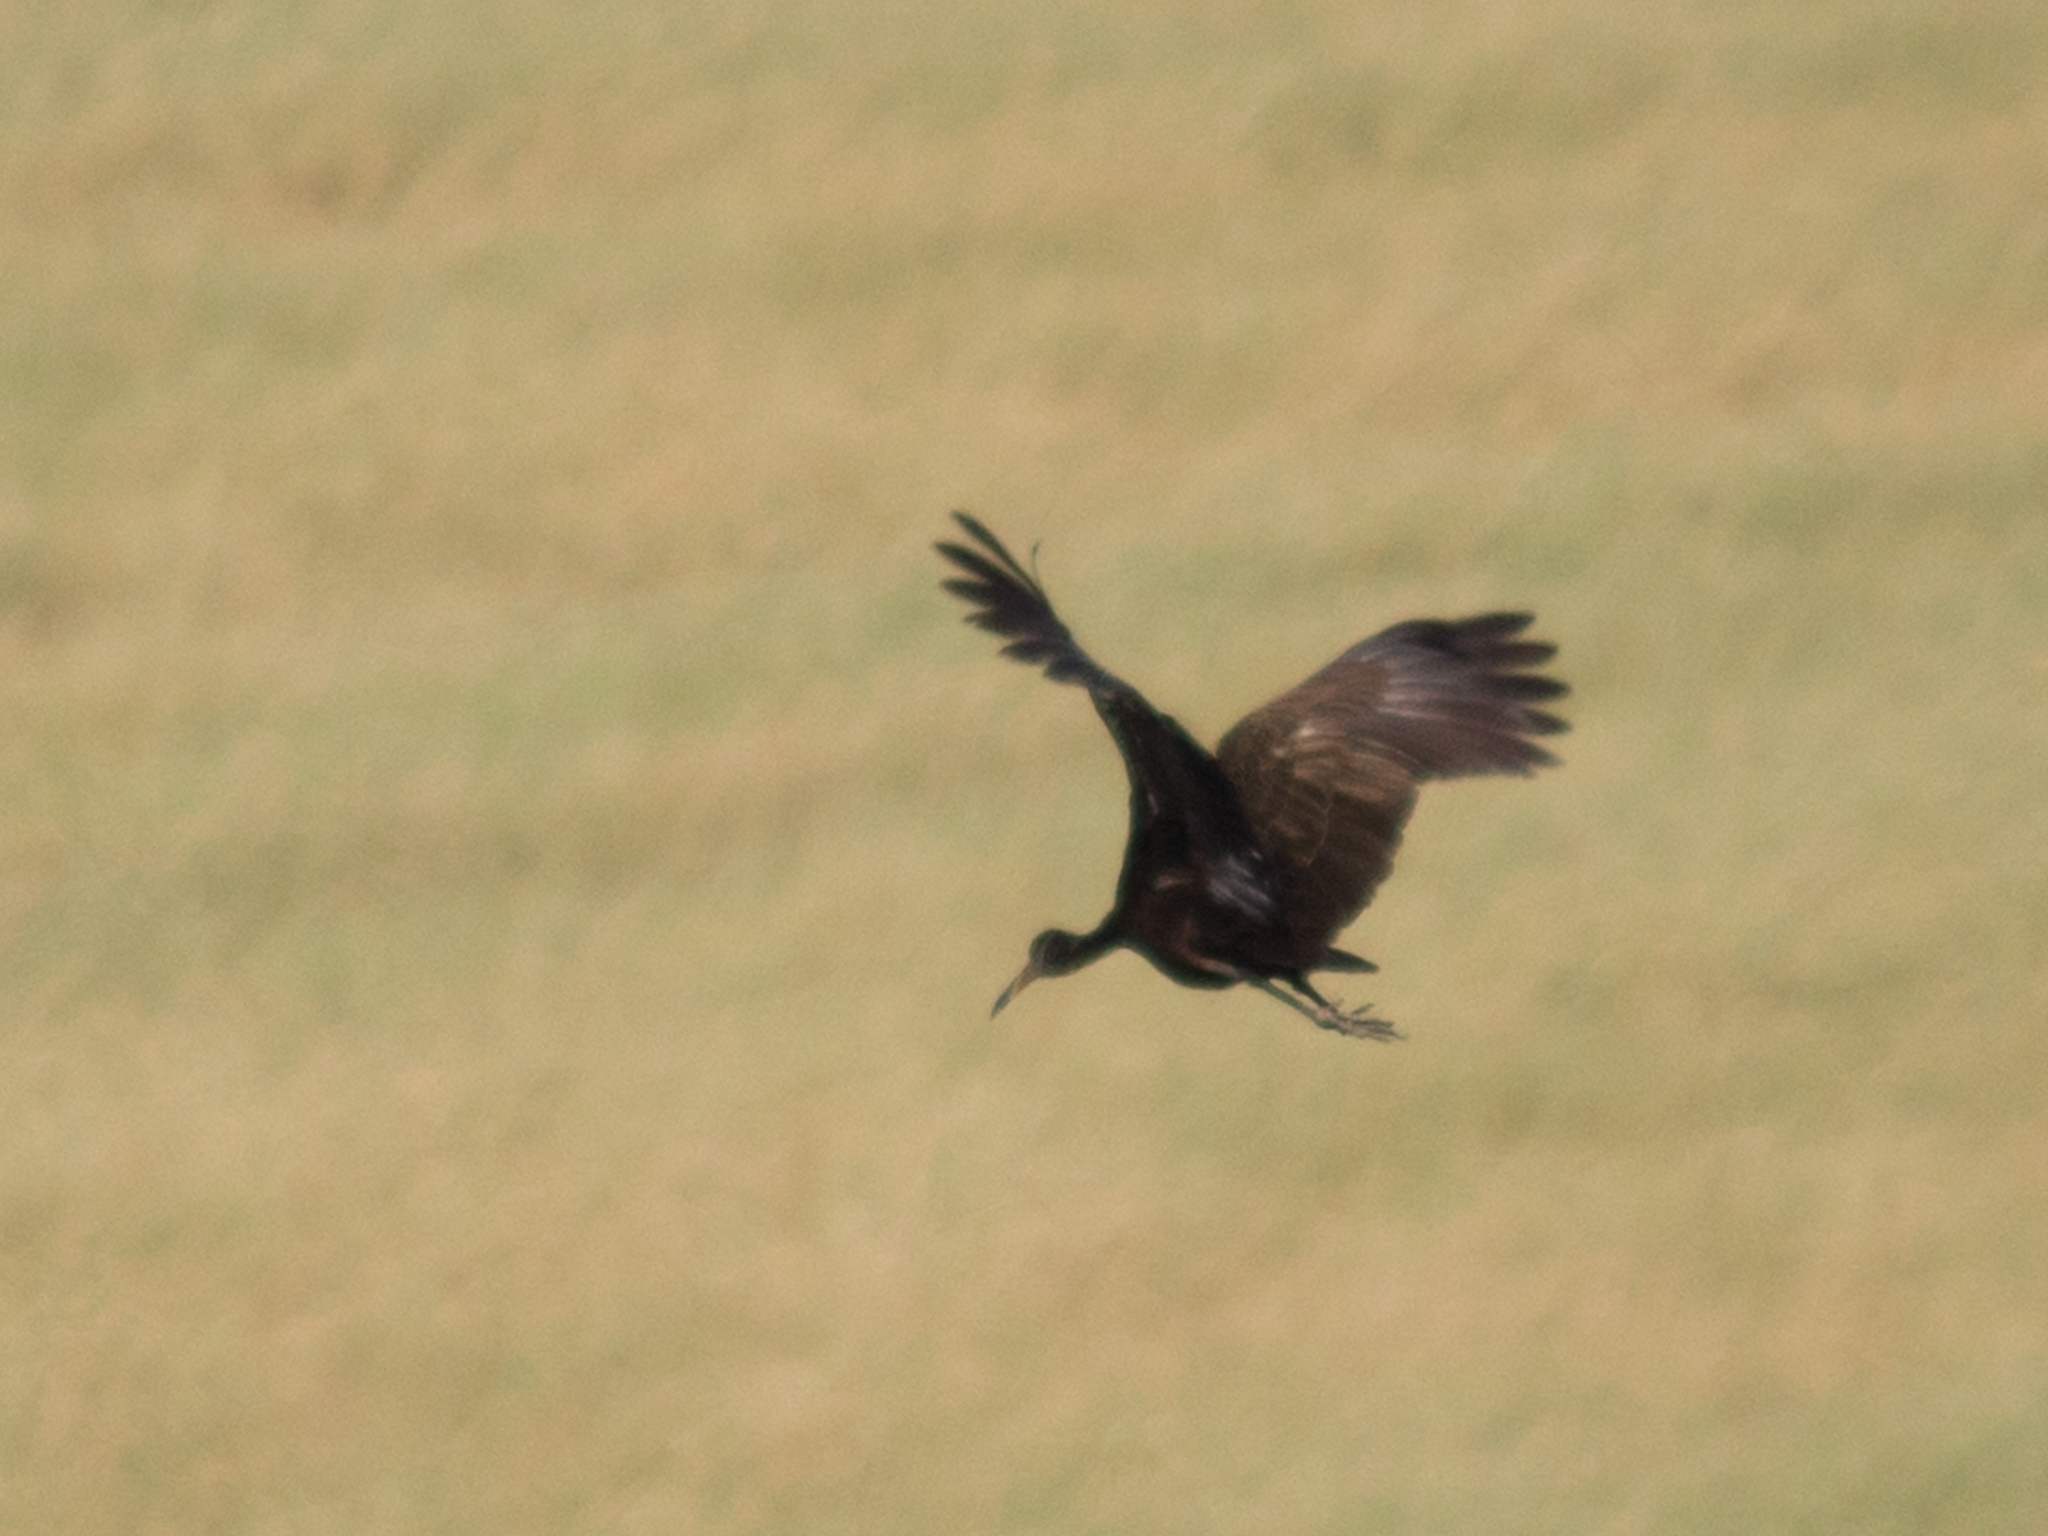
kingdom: Animalia
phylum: Chordata
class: Aves
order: Gruiformes
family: Aramidae
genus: Aramus
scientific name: Aramus guarauna
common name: Limpkin
